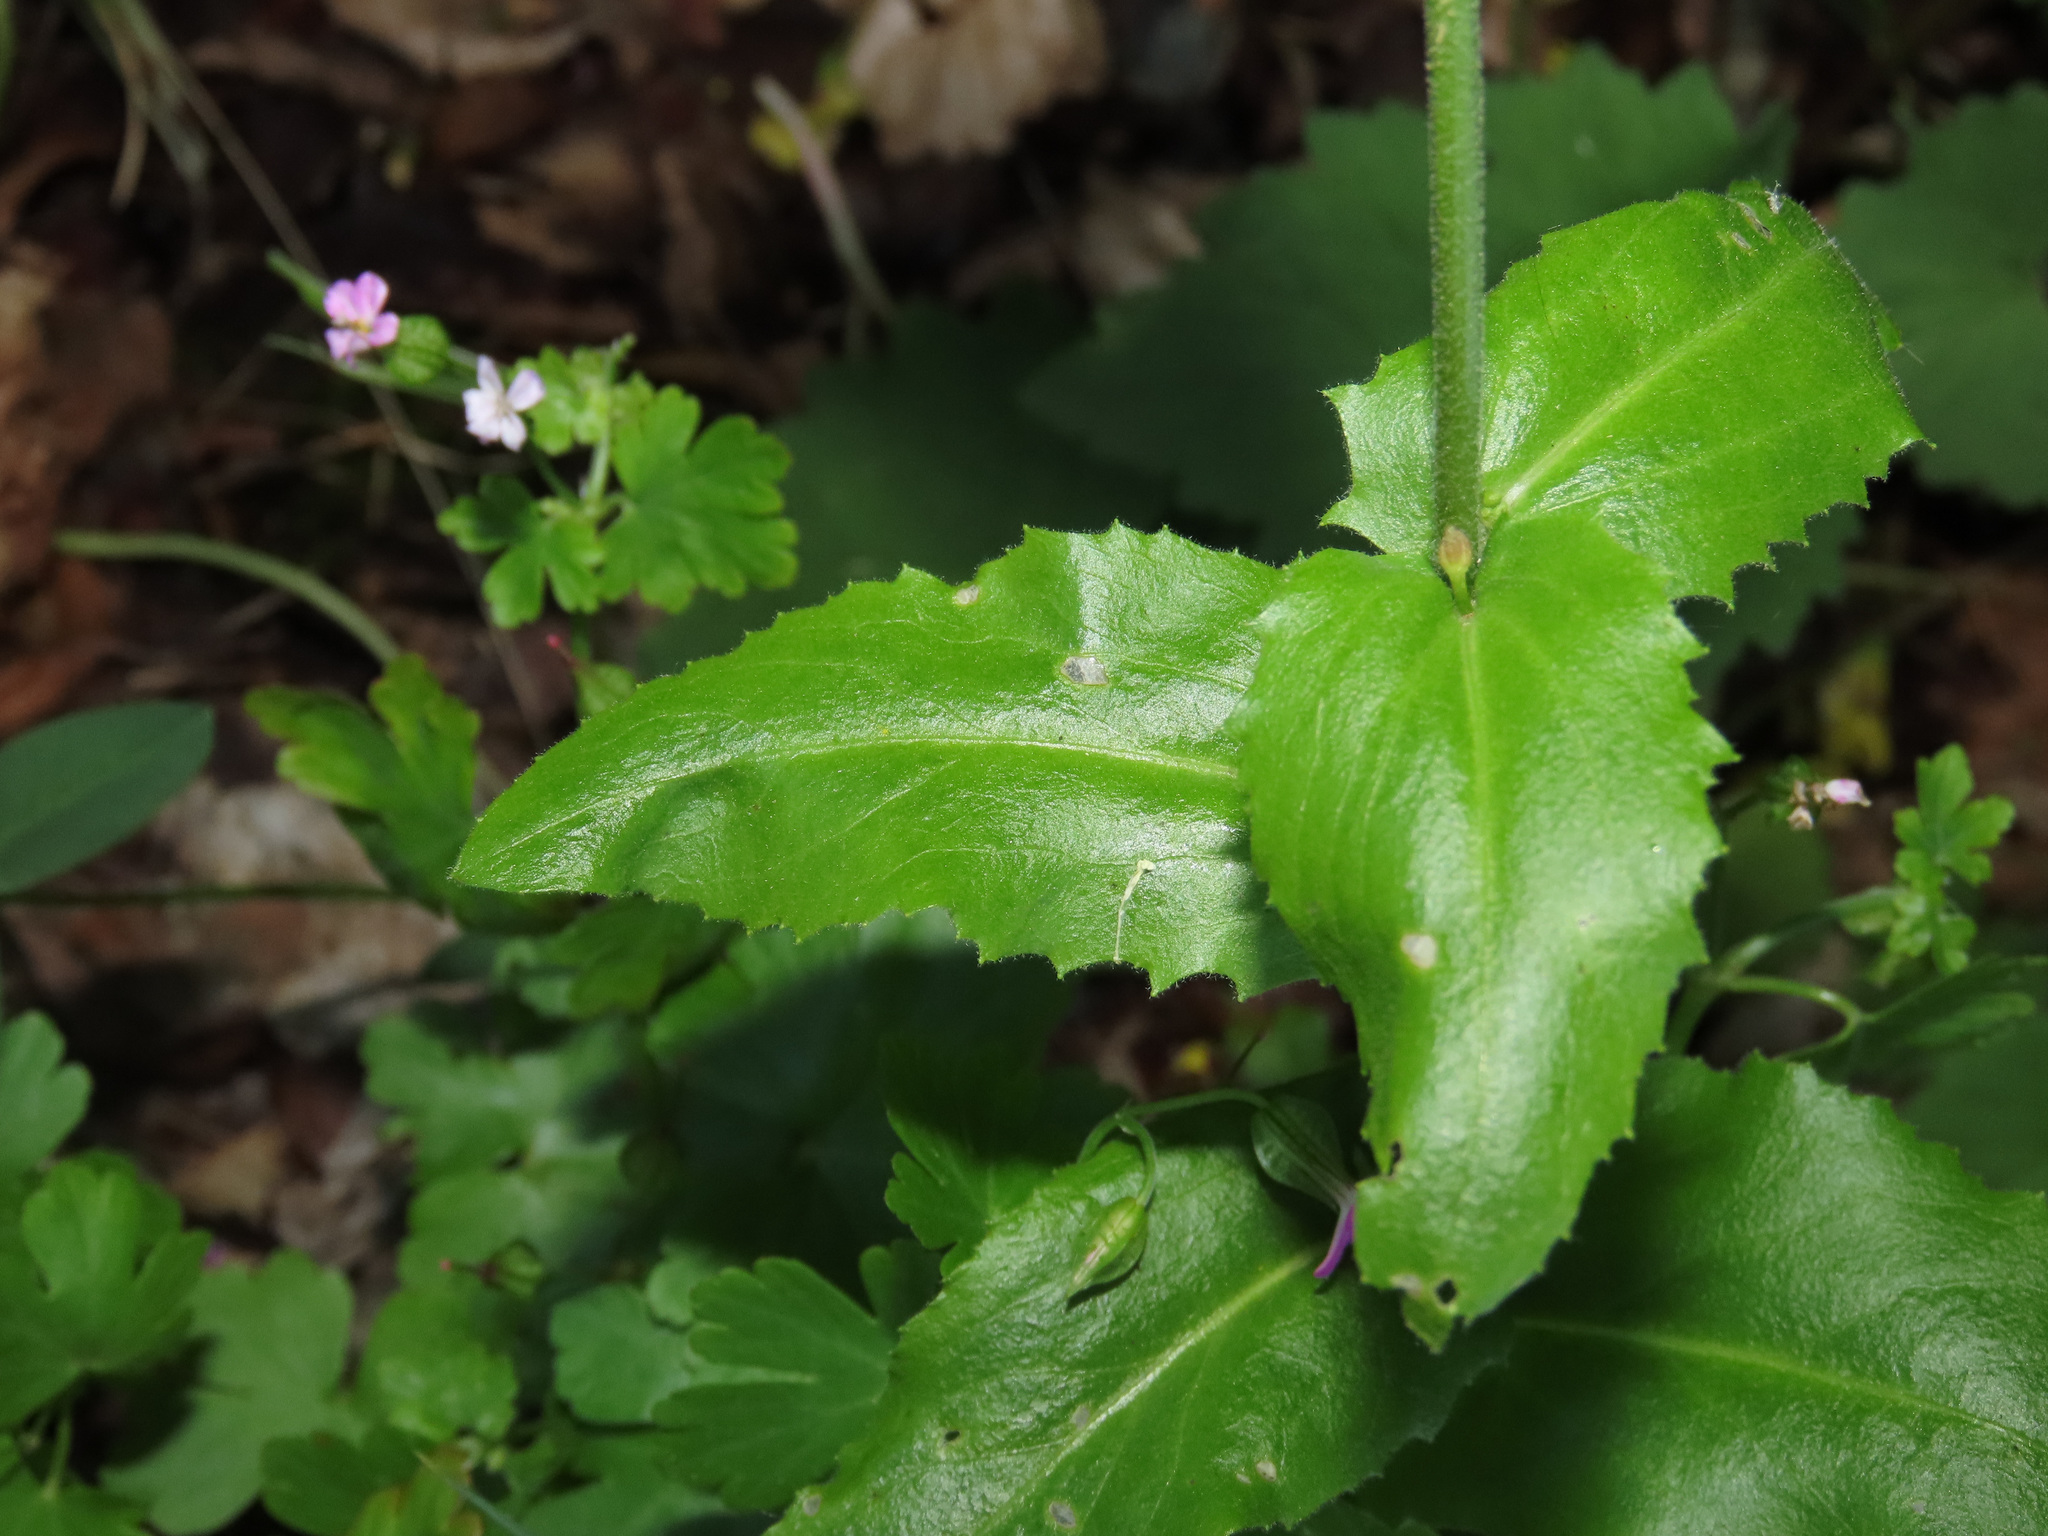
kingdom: Plantae
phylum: Tracheophyta
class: Magnoliopsida
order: Brassicales
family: Brassicaceae
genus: Pseudoturritis
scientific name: Pseudoturritis turrita
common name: Tower cress
